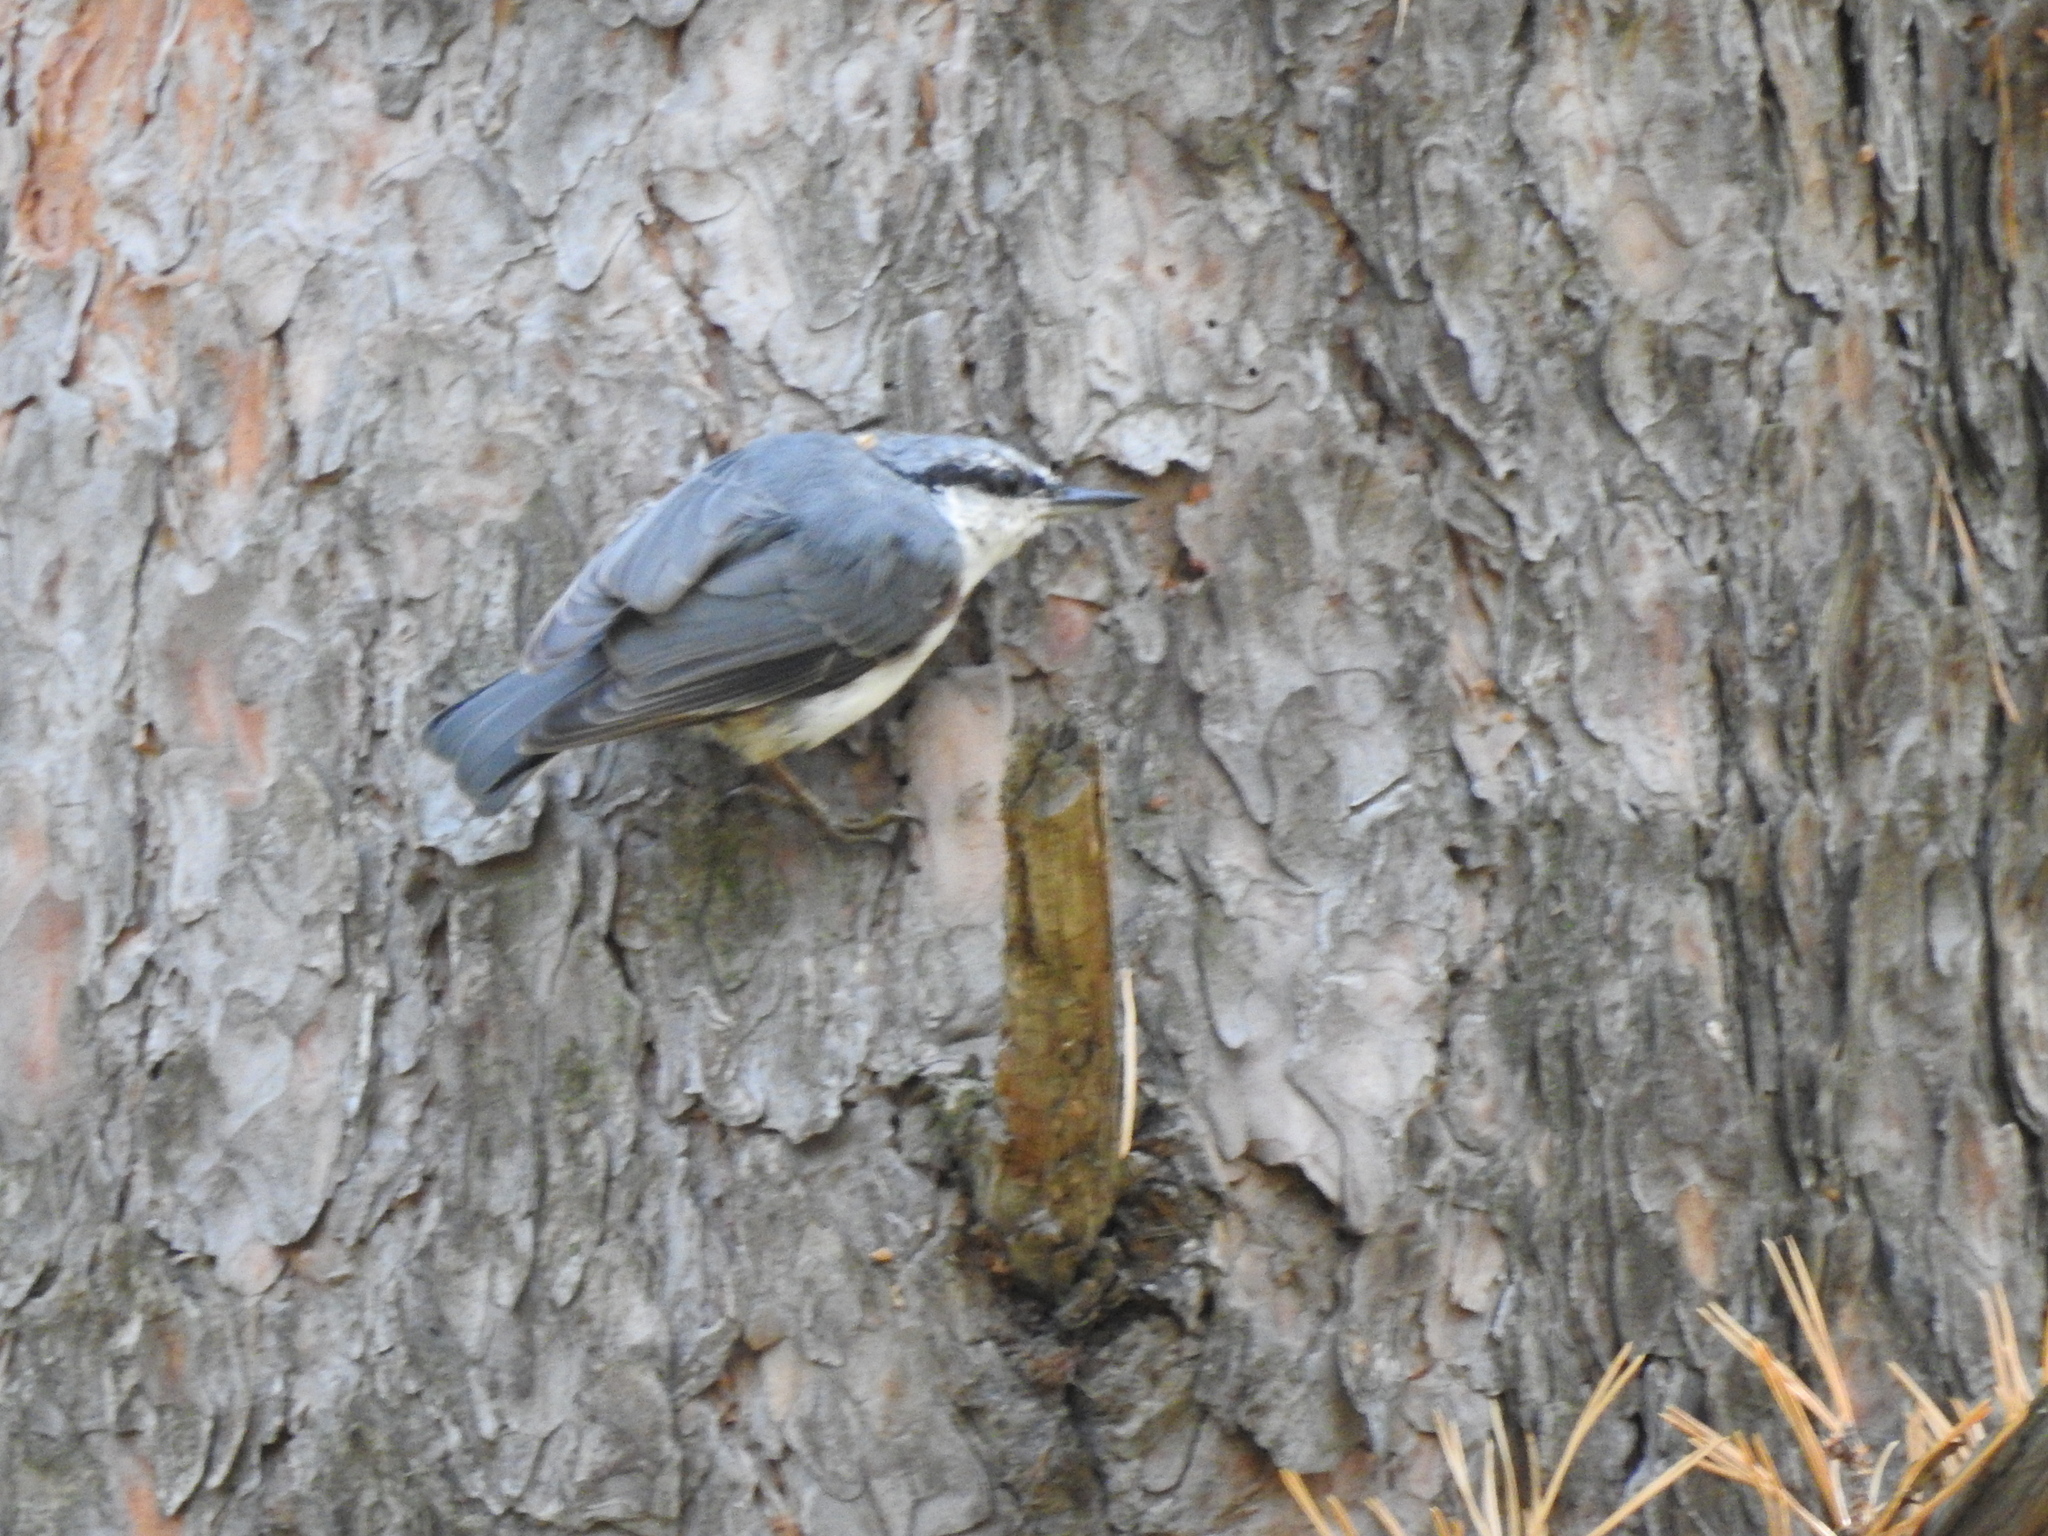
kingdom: Animalia
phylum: Chordata
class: Aves
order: Passeriformes
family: Sittidae
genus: Sitta
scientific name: Sitta europaea
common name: Eurasian nuthatch
